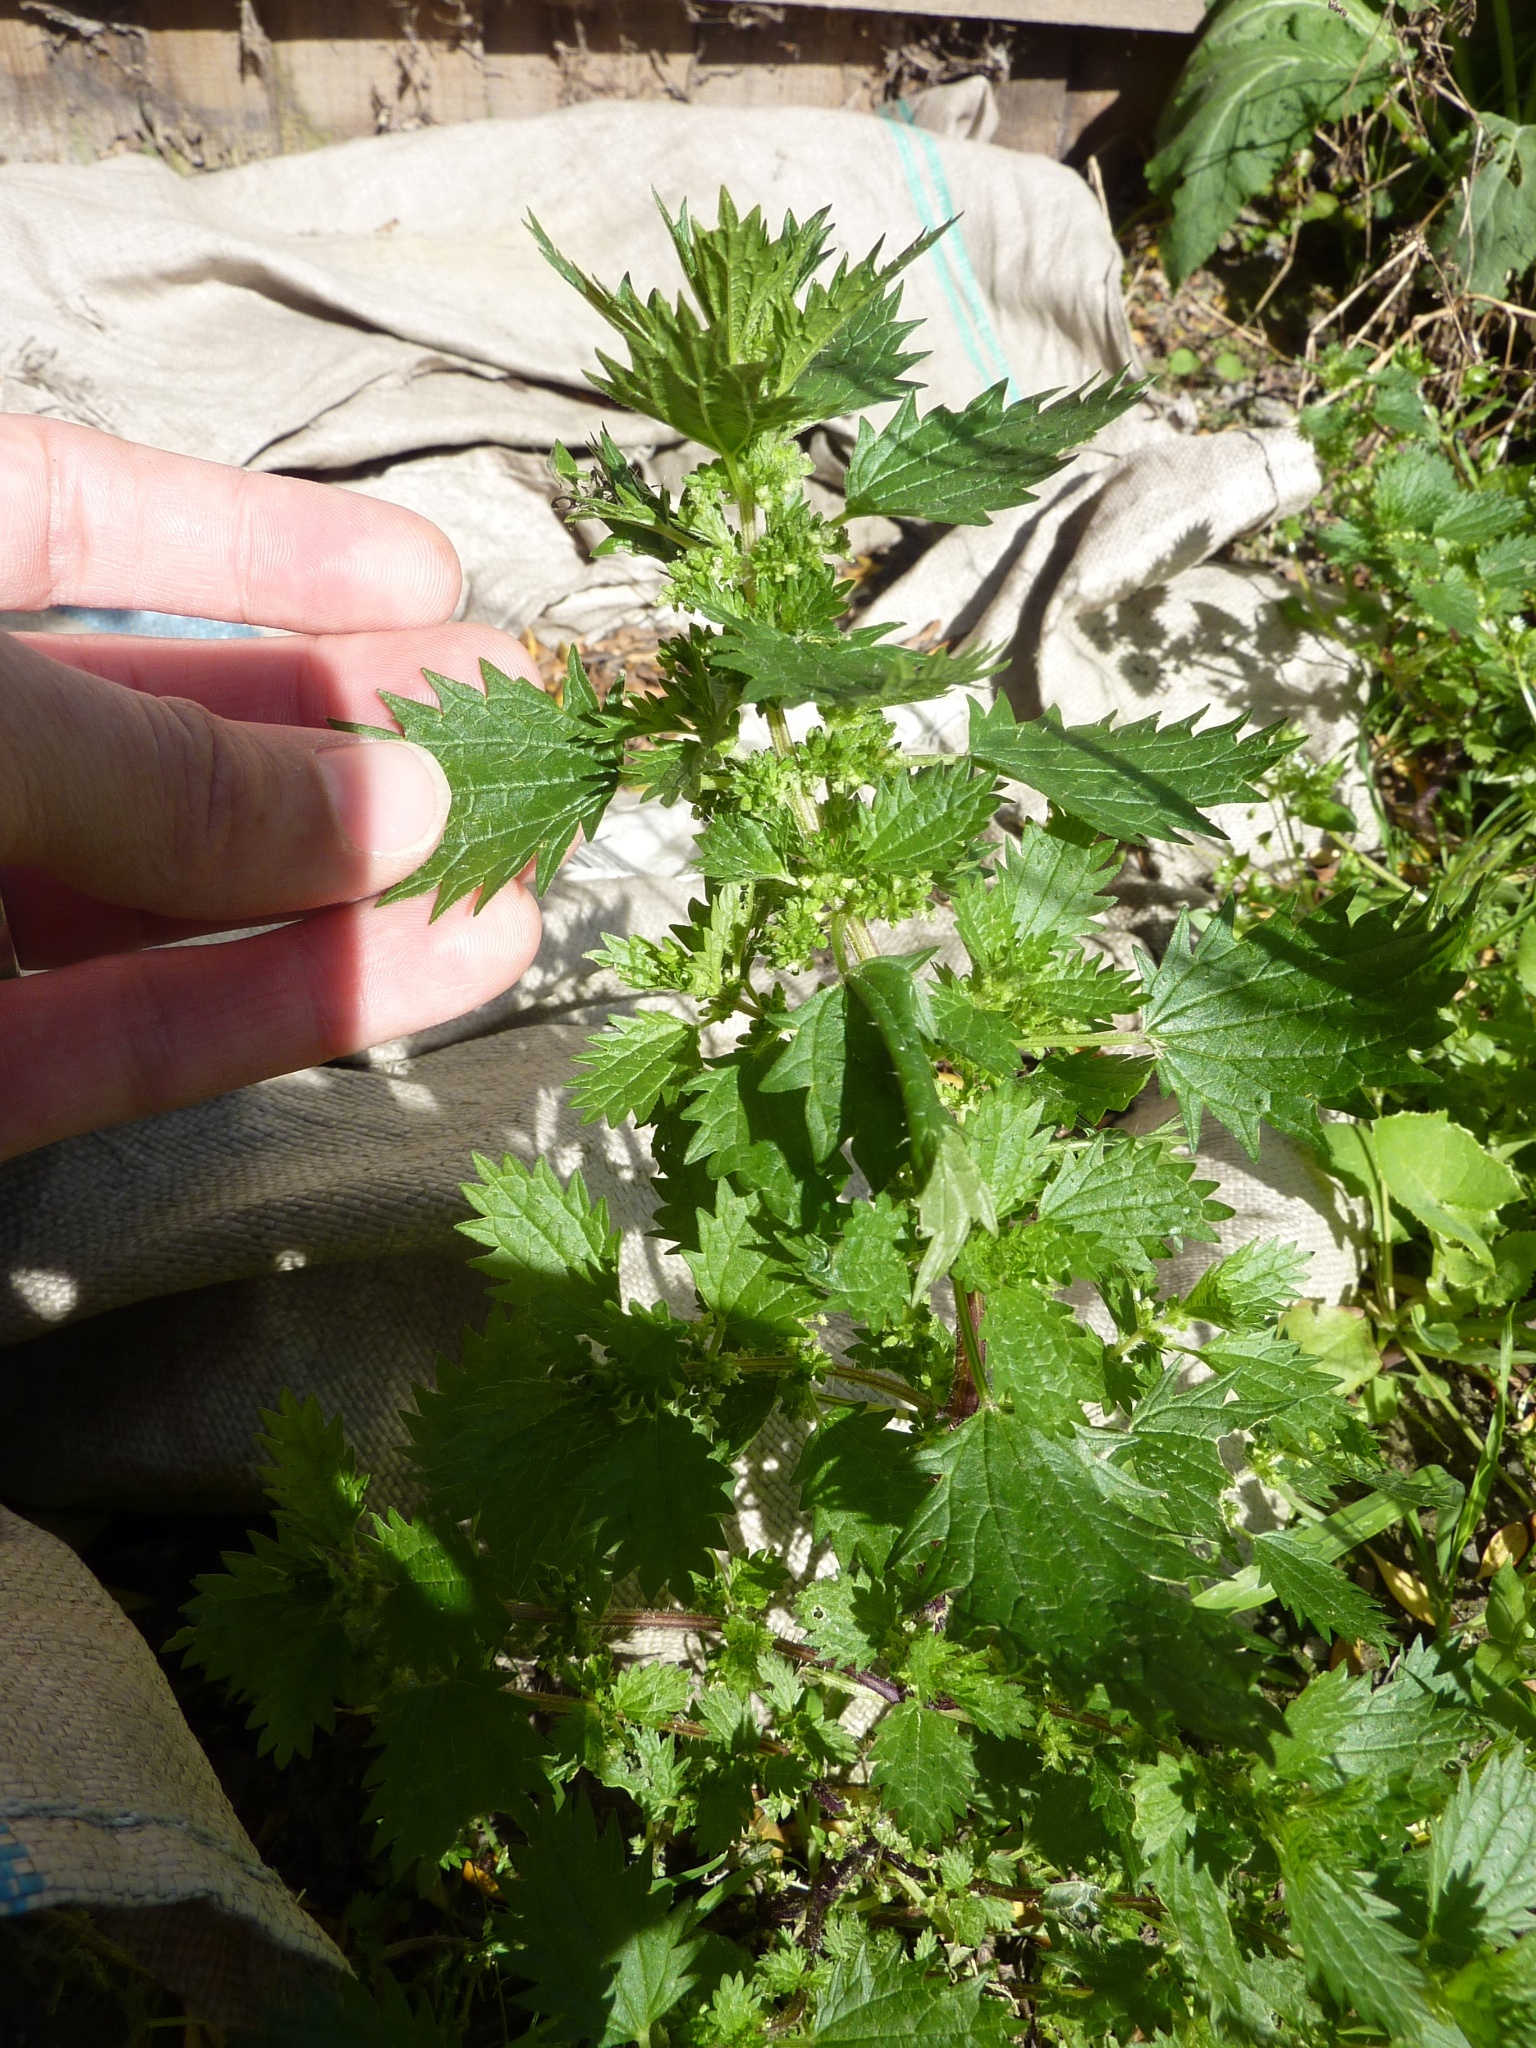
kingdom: Plantae
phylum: Tracheophyta
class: Magnoliopsida
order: Rosales
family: Urticaceae
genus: Urtica
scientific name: Urtica urens
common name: Dwarf nettle
